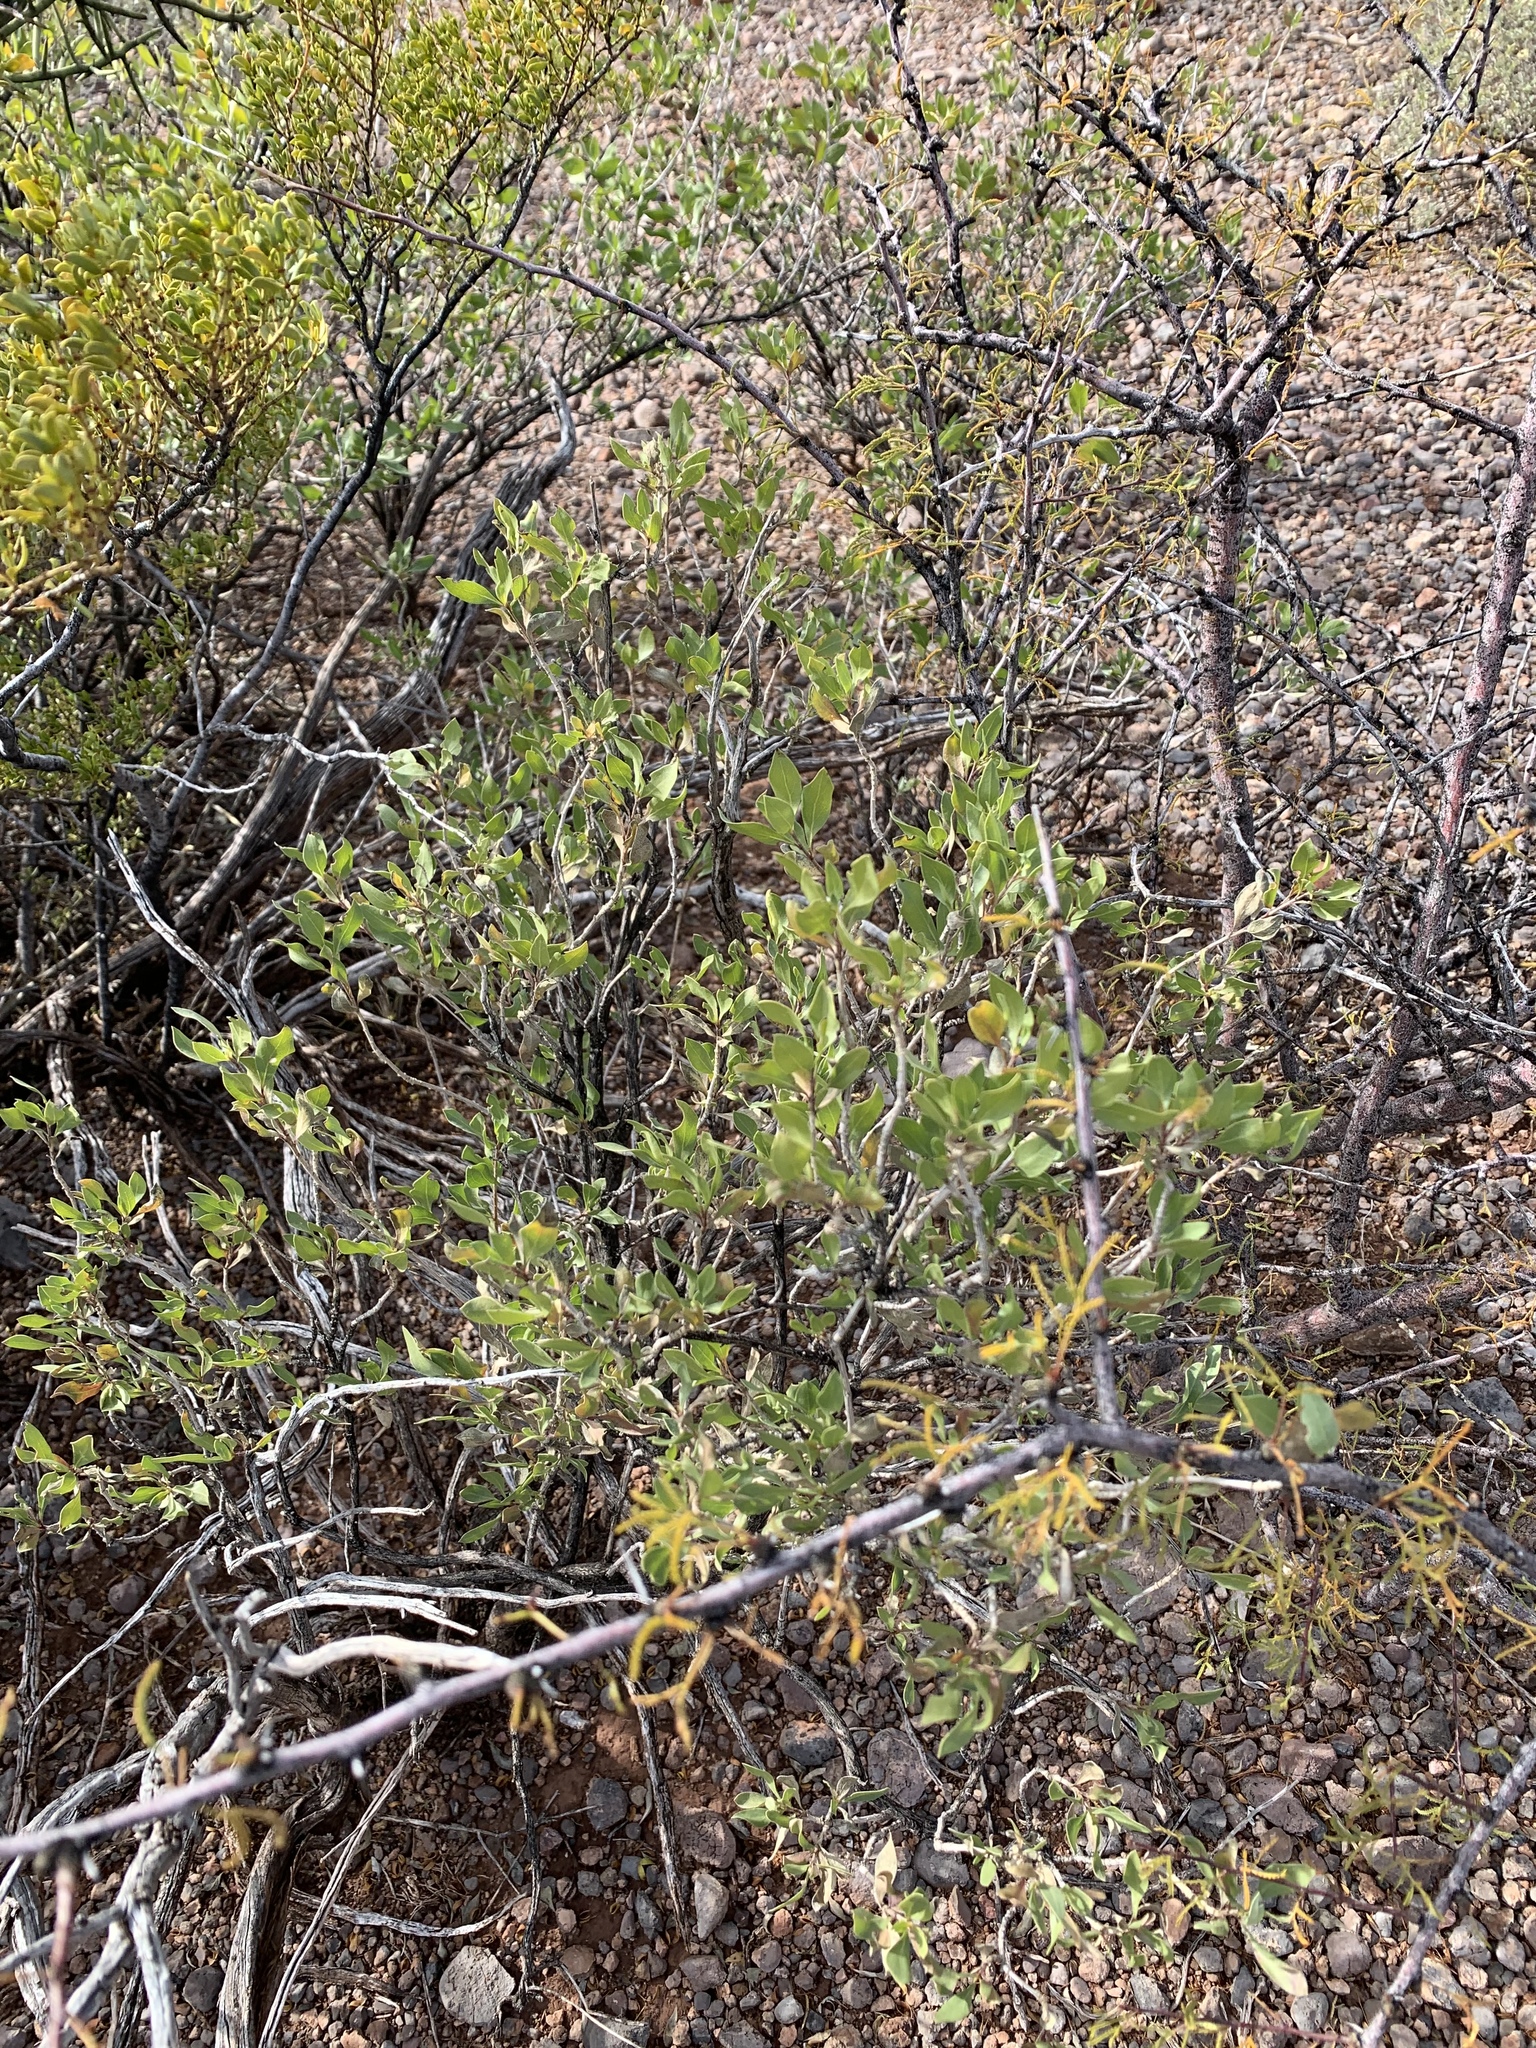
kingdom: Plantae
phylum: Tracheophyta
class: Magnoliopsida
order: Asterales
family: Asteraceae
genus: Flourensia
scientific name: Flourensia cernua
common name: Varnishbush
